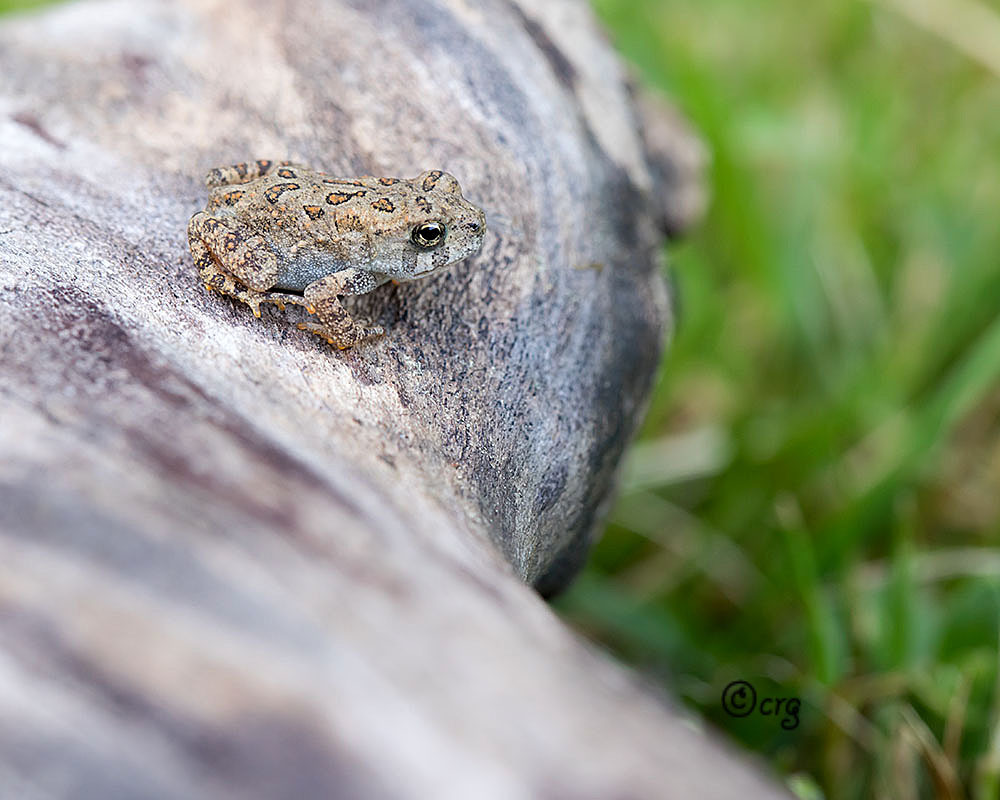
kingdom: Animalia
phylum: Chordata
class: Amphibia
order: Anura
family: Bufonidae
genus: Anaxyrus
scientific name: Anaxyrus americanus
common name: American toad
